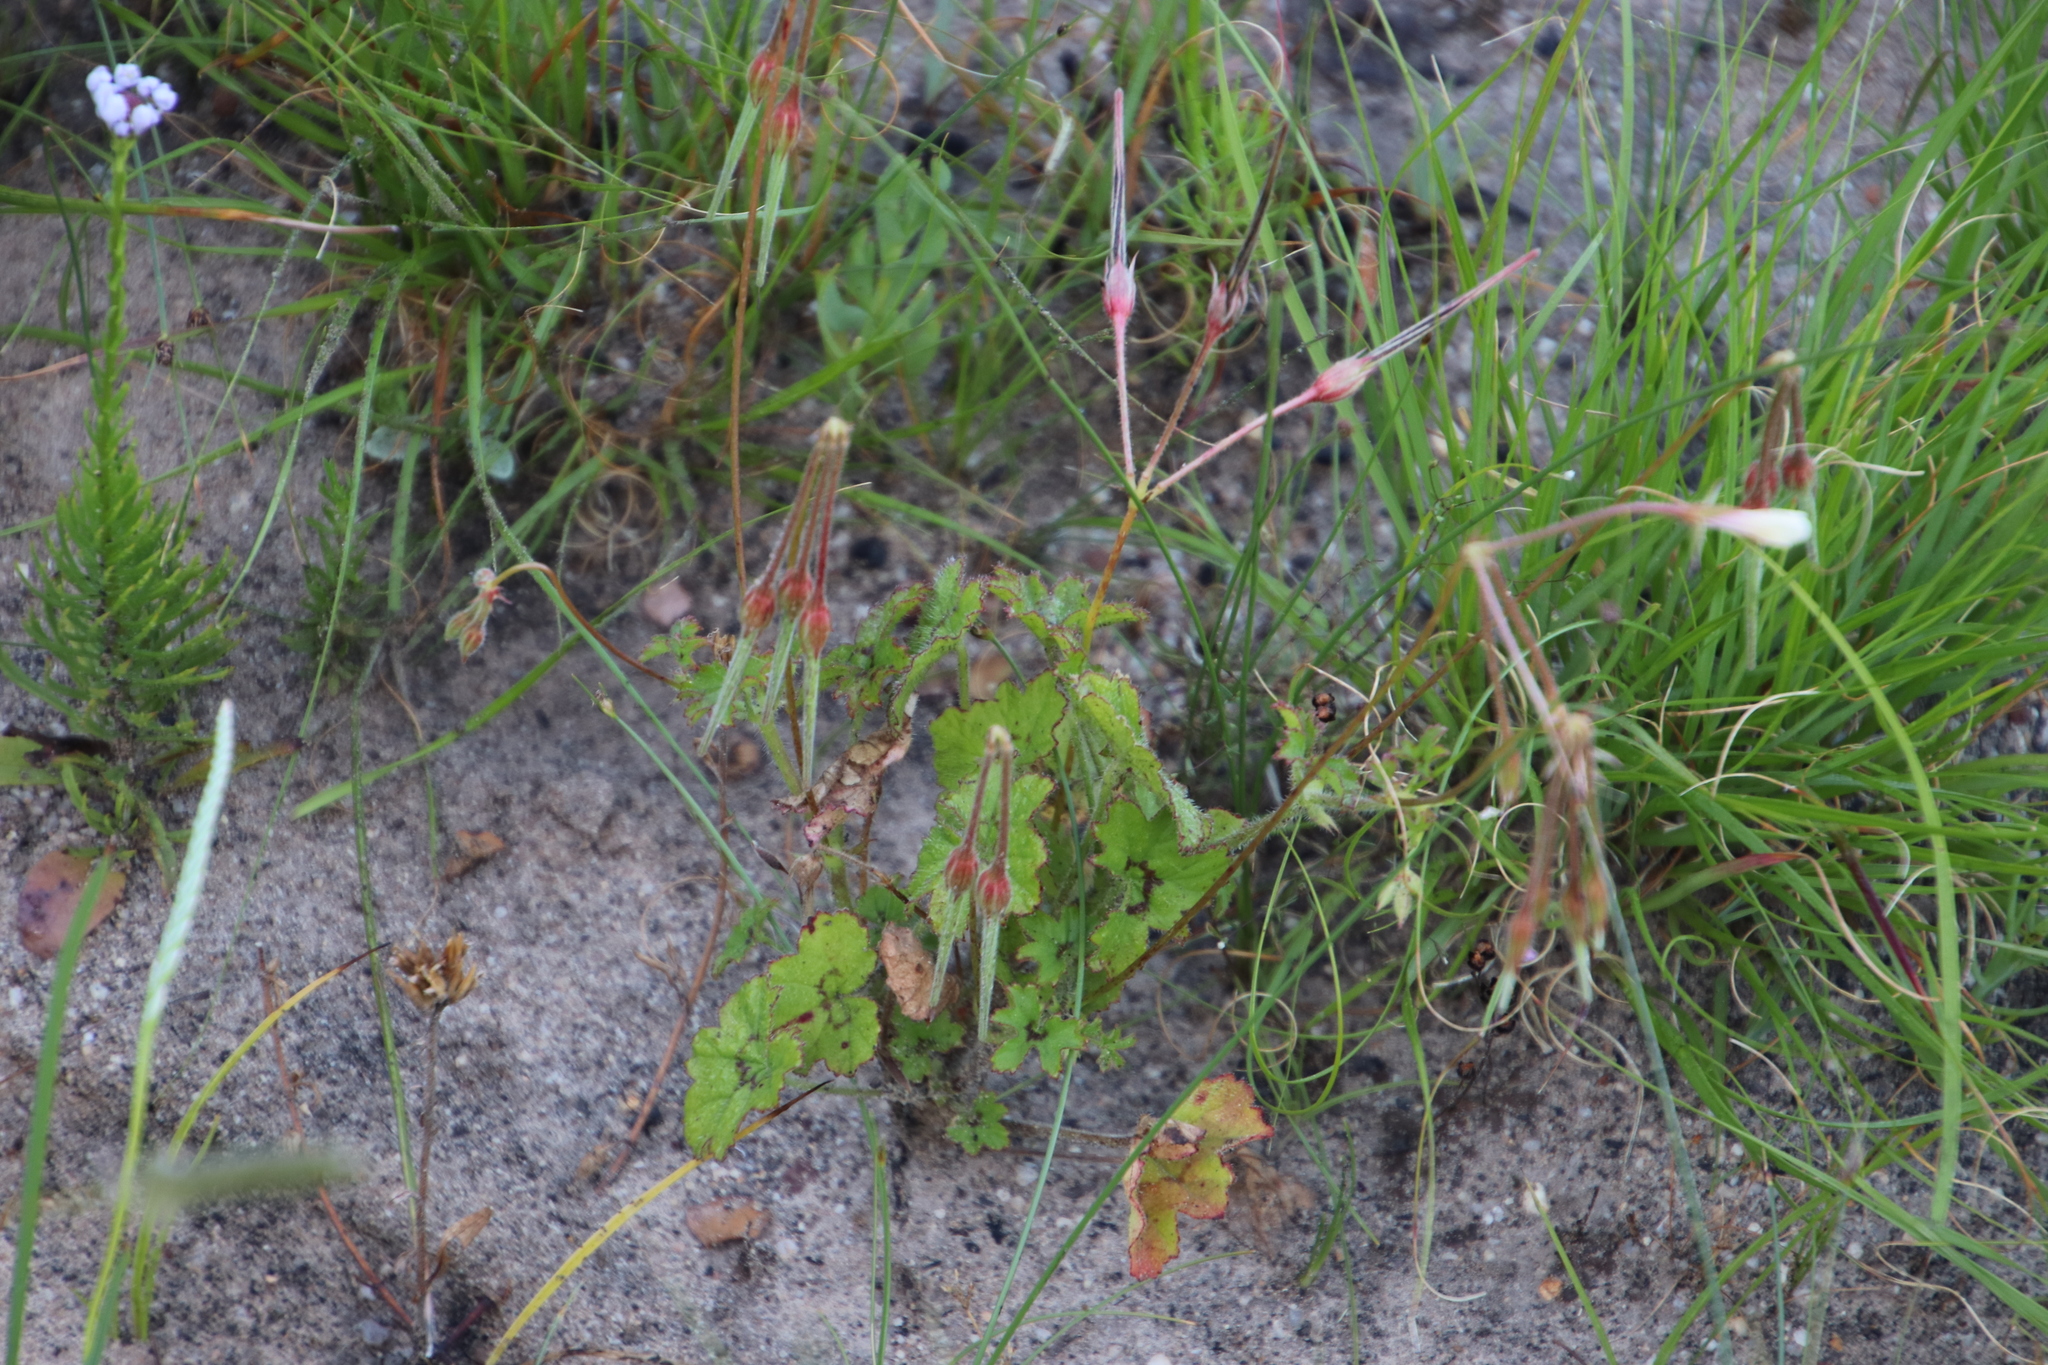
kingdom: Plantae
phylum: Tracheophyta
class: Magnoliopsida
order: Geraniales
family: Geraniaceae
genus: Pelargonium
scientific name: Pelargonium elongatum
